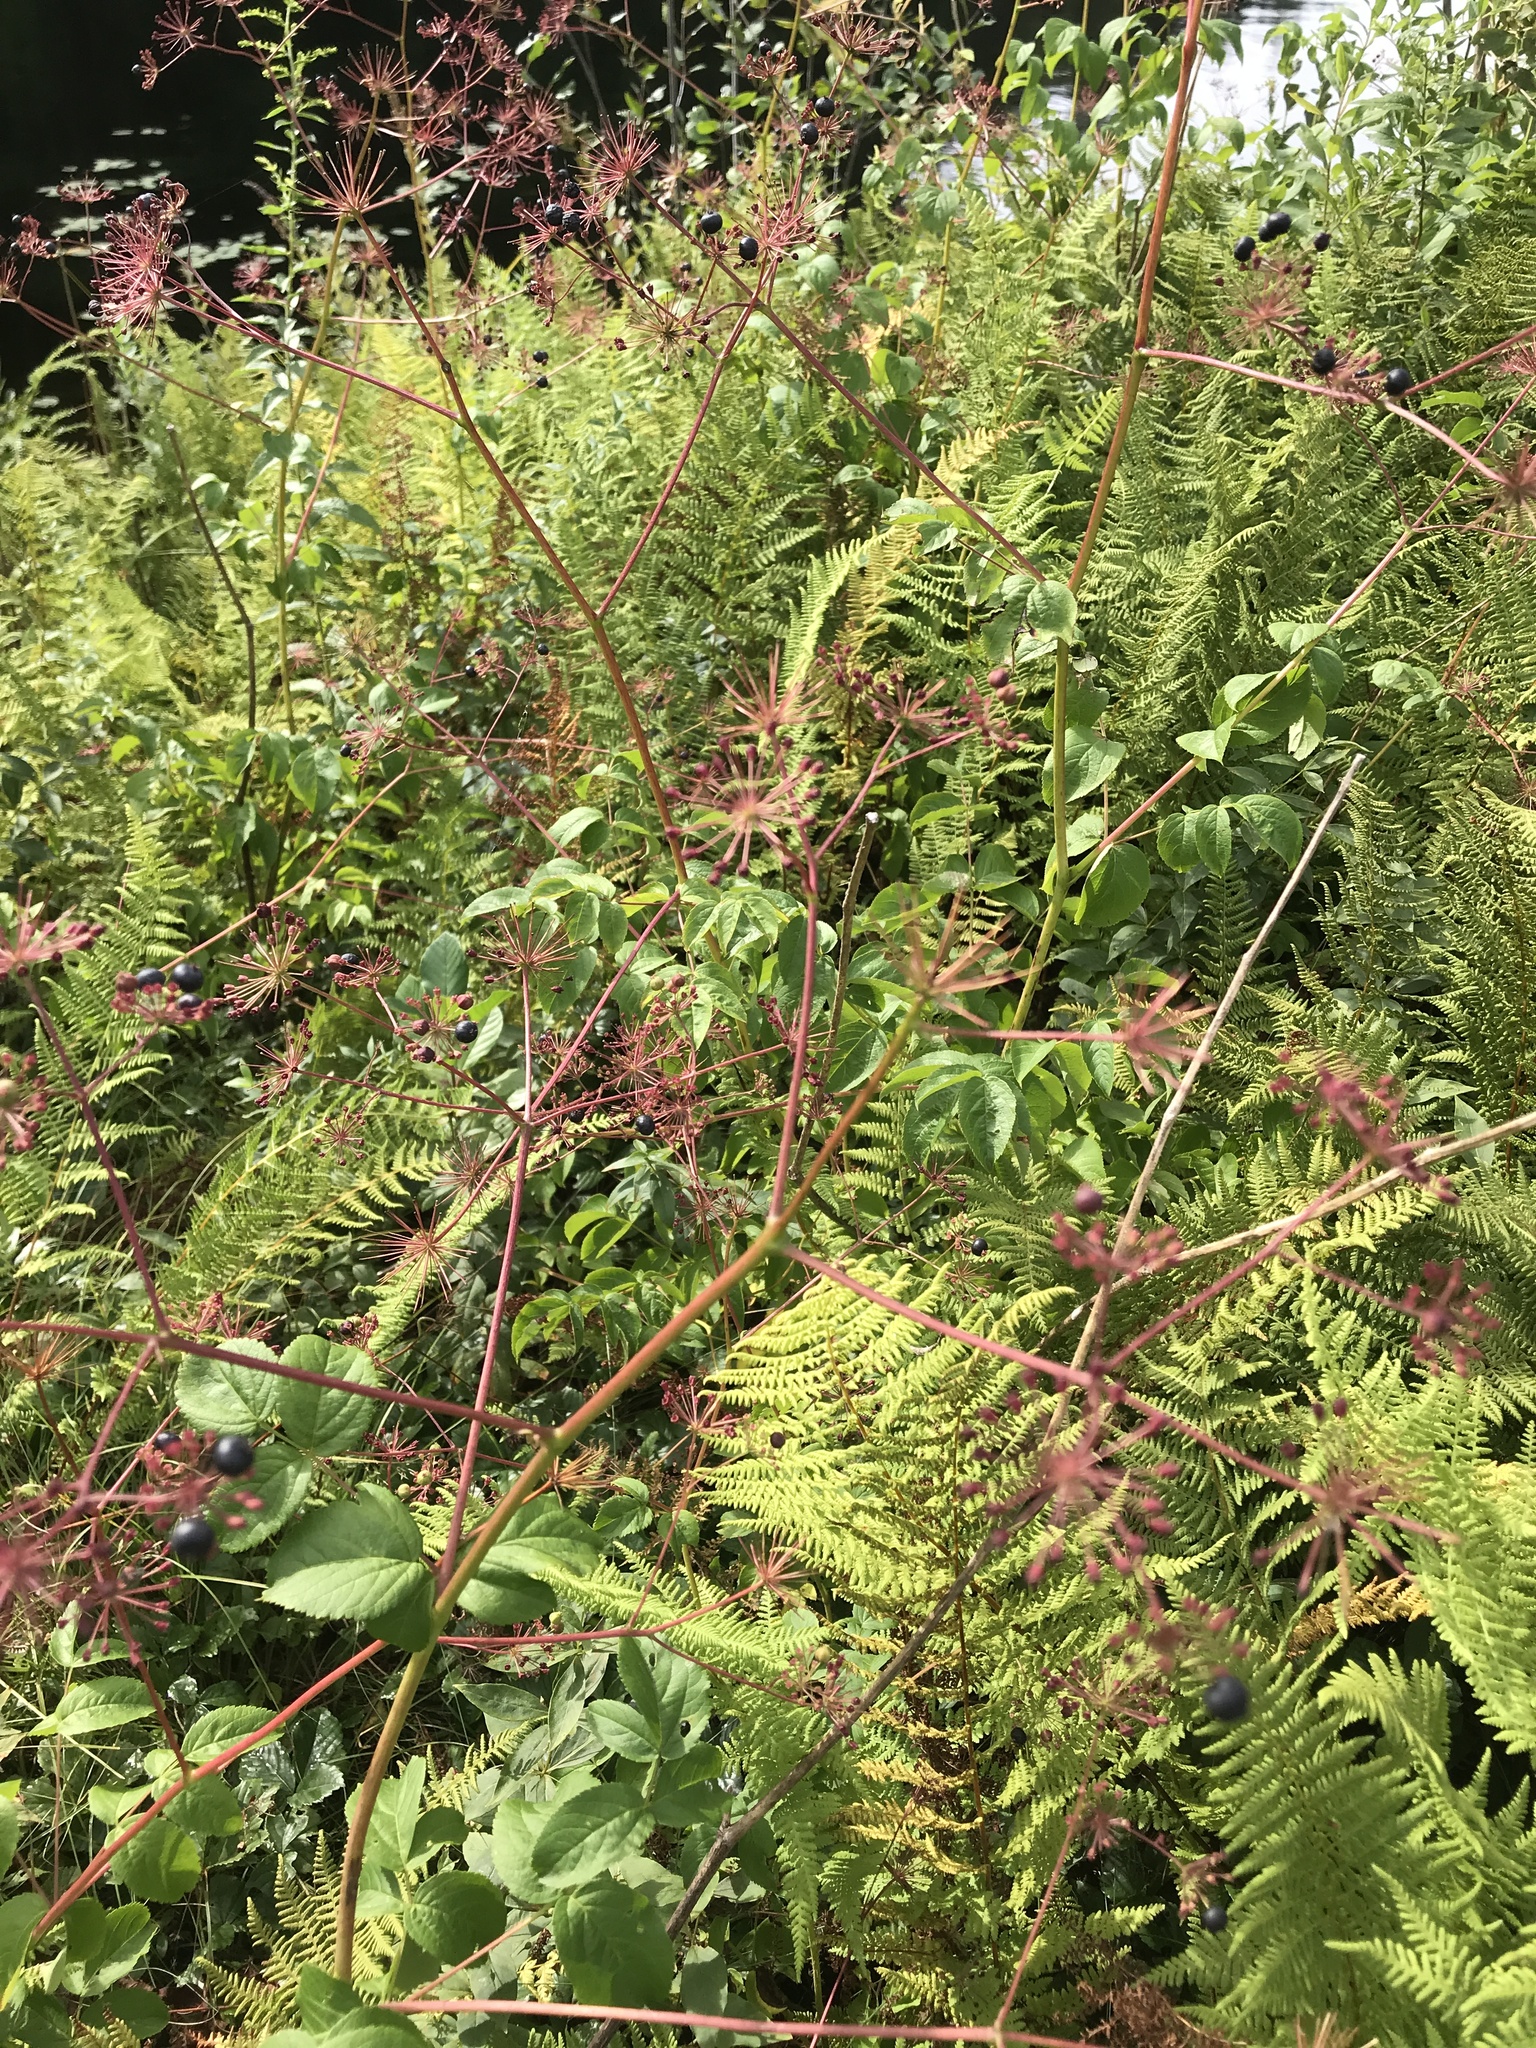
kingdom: Plantae
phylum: Tracheophyta
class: Magnoliopsida
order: Apiales
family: Araliaceae
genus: Aralia
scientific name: Aralia hispida
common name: Bristly sarsaparilla
